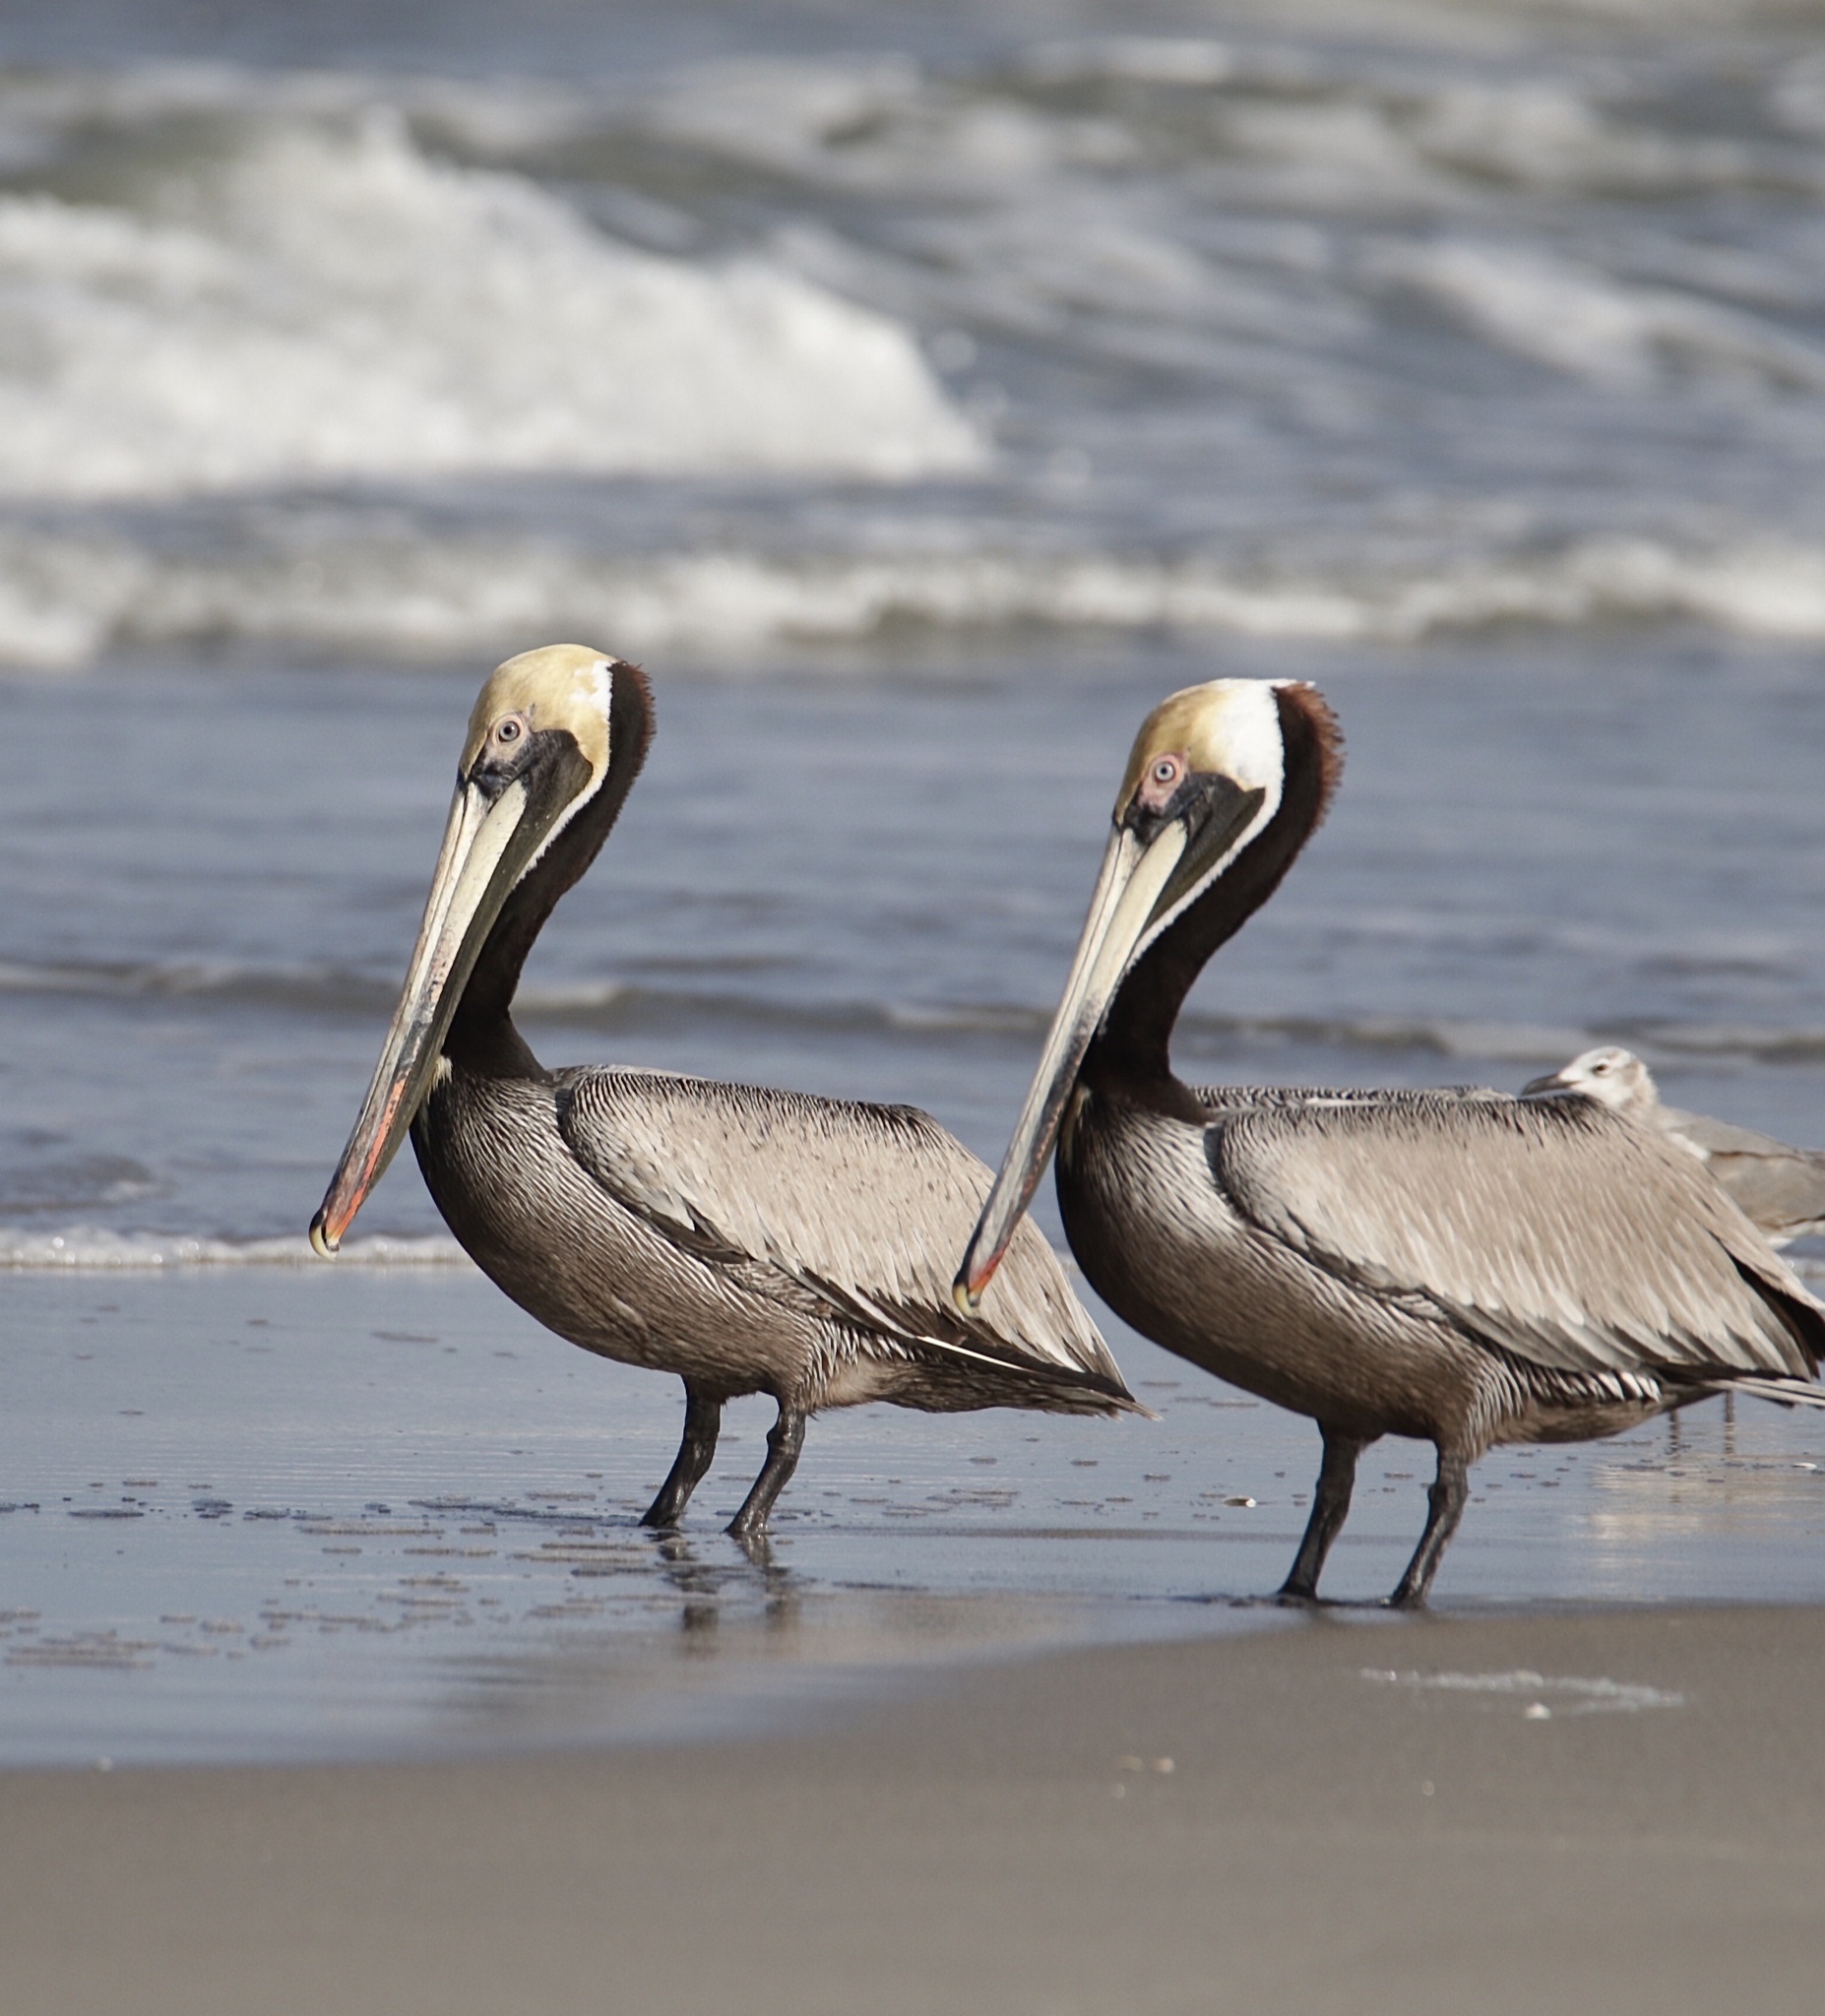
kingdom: Animalia
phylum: Chordata
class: Aves
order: Pelecaniformes
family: Pelecanidae
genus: Pelecanus
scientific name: Pelecanus occidentalis
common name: Brown pelican
